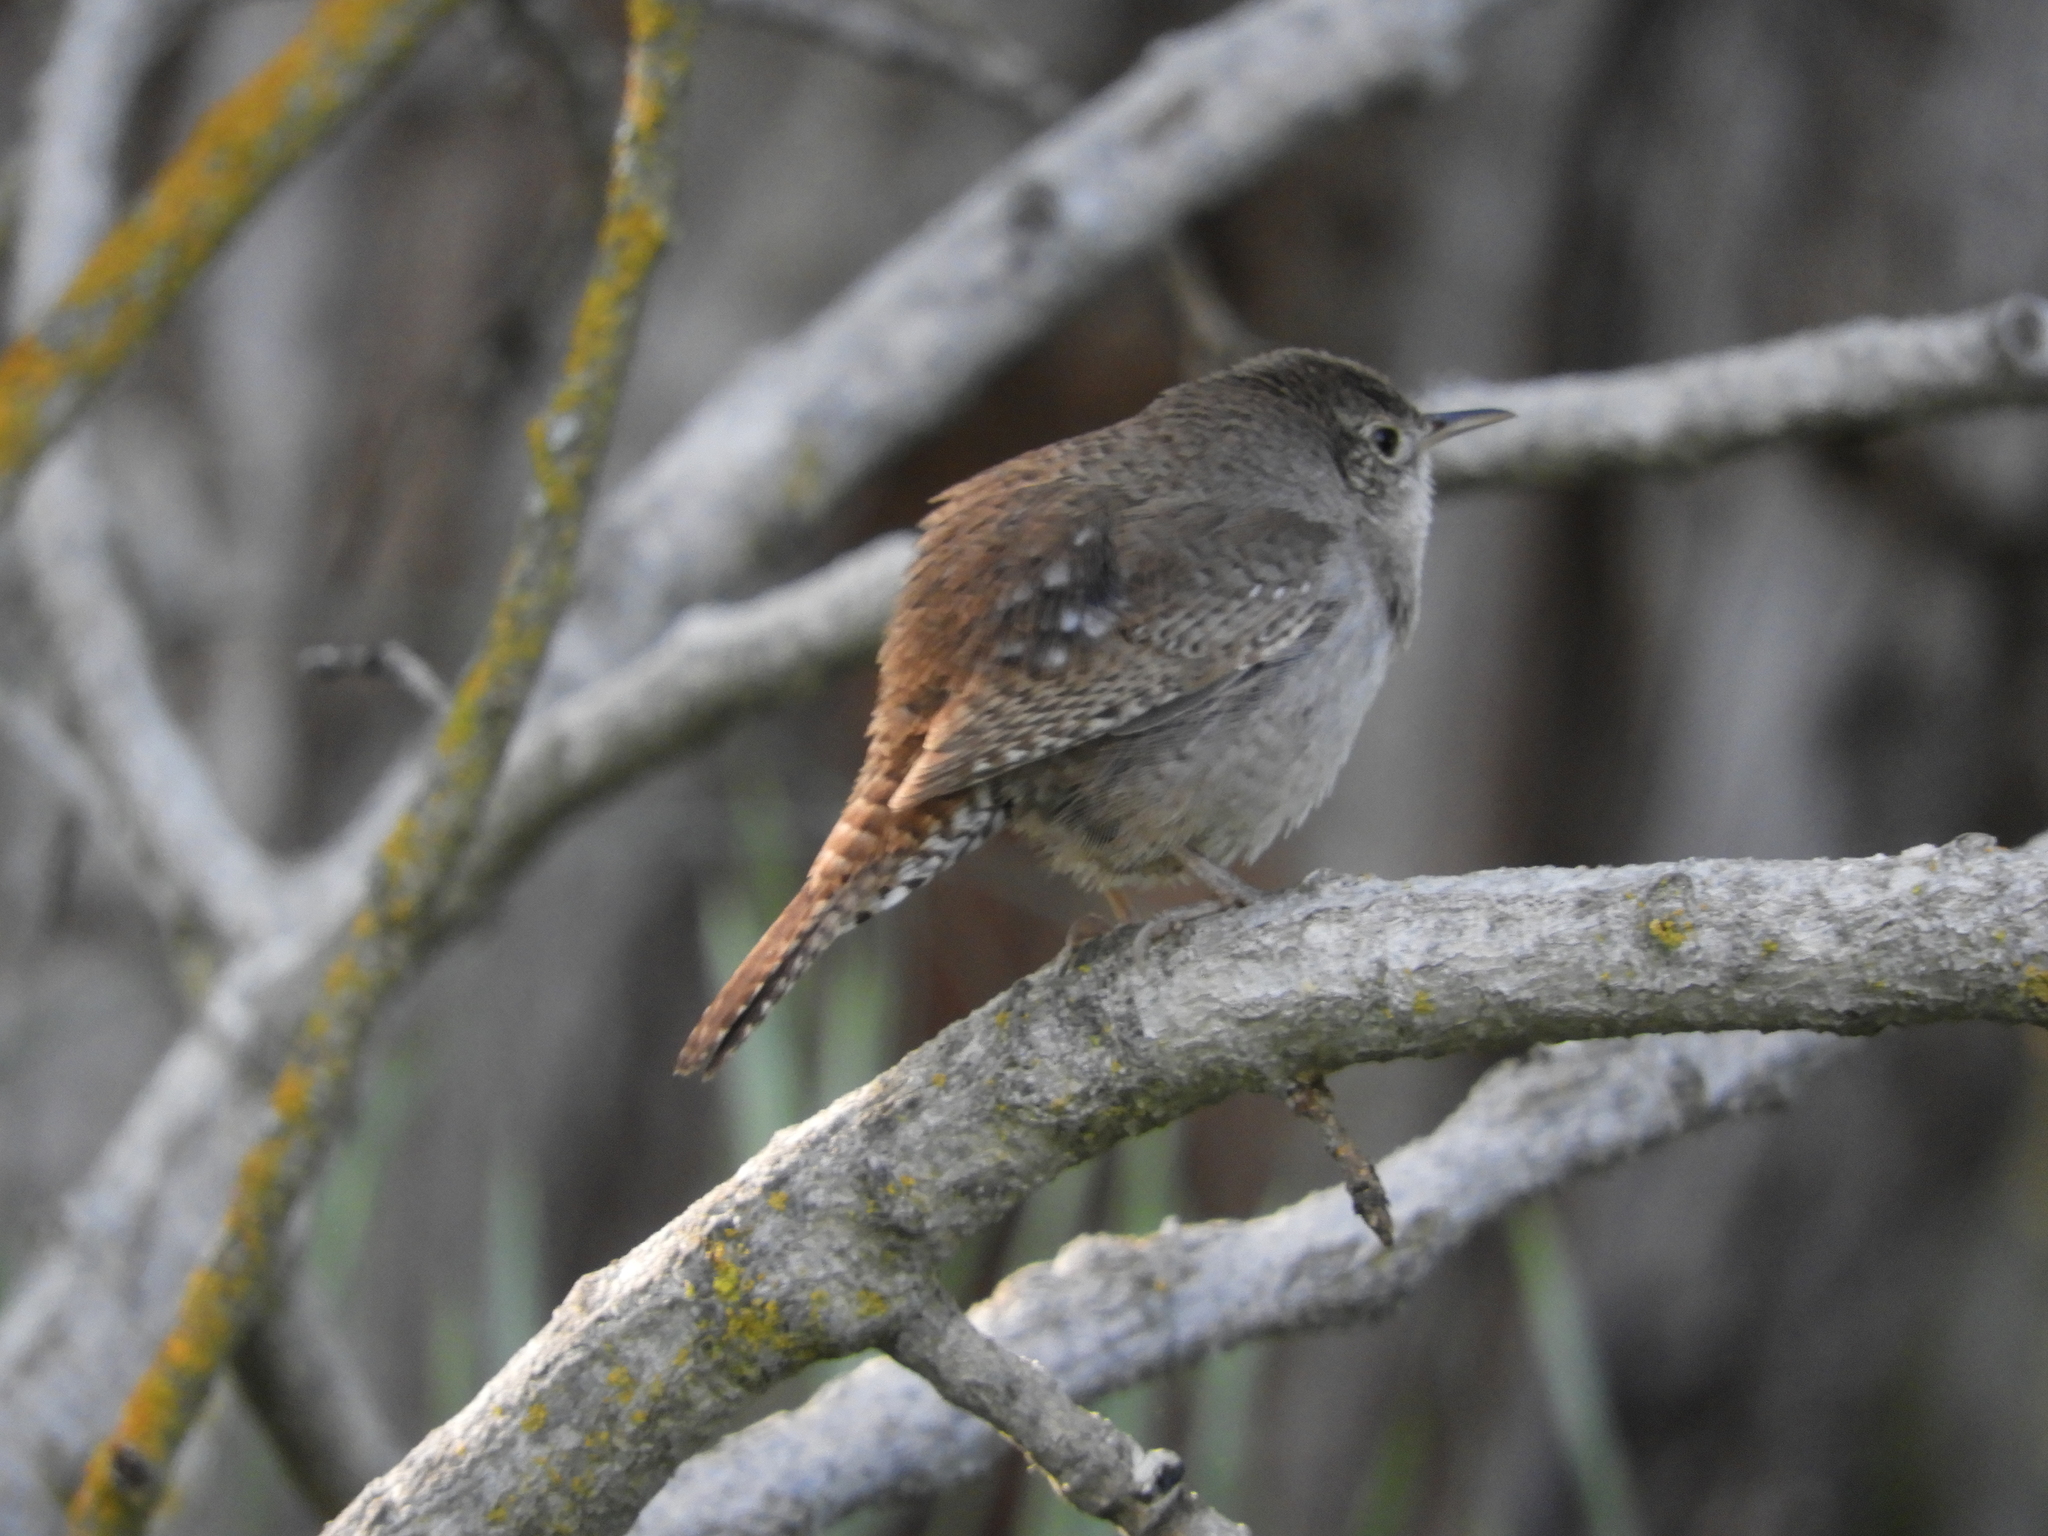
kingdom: Animalia
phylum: Chordata
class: Aves
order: Passeriformes
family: Troglodytidae
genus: Troglodytes
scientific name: Troglodytes aedon
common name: House wren
